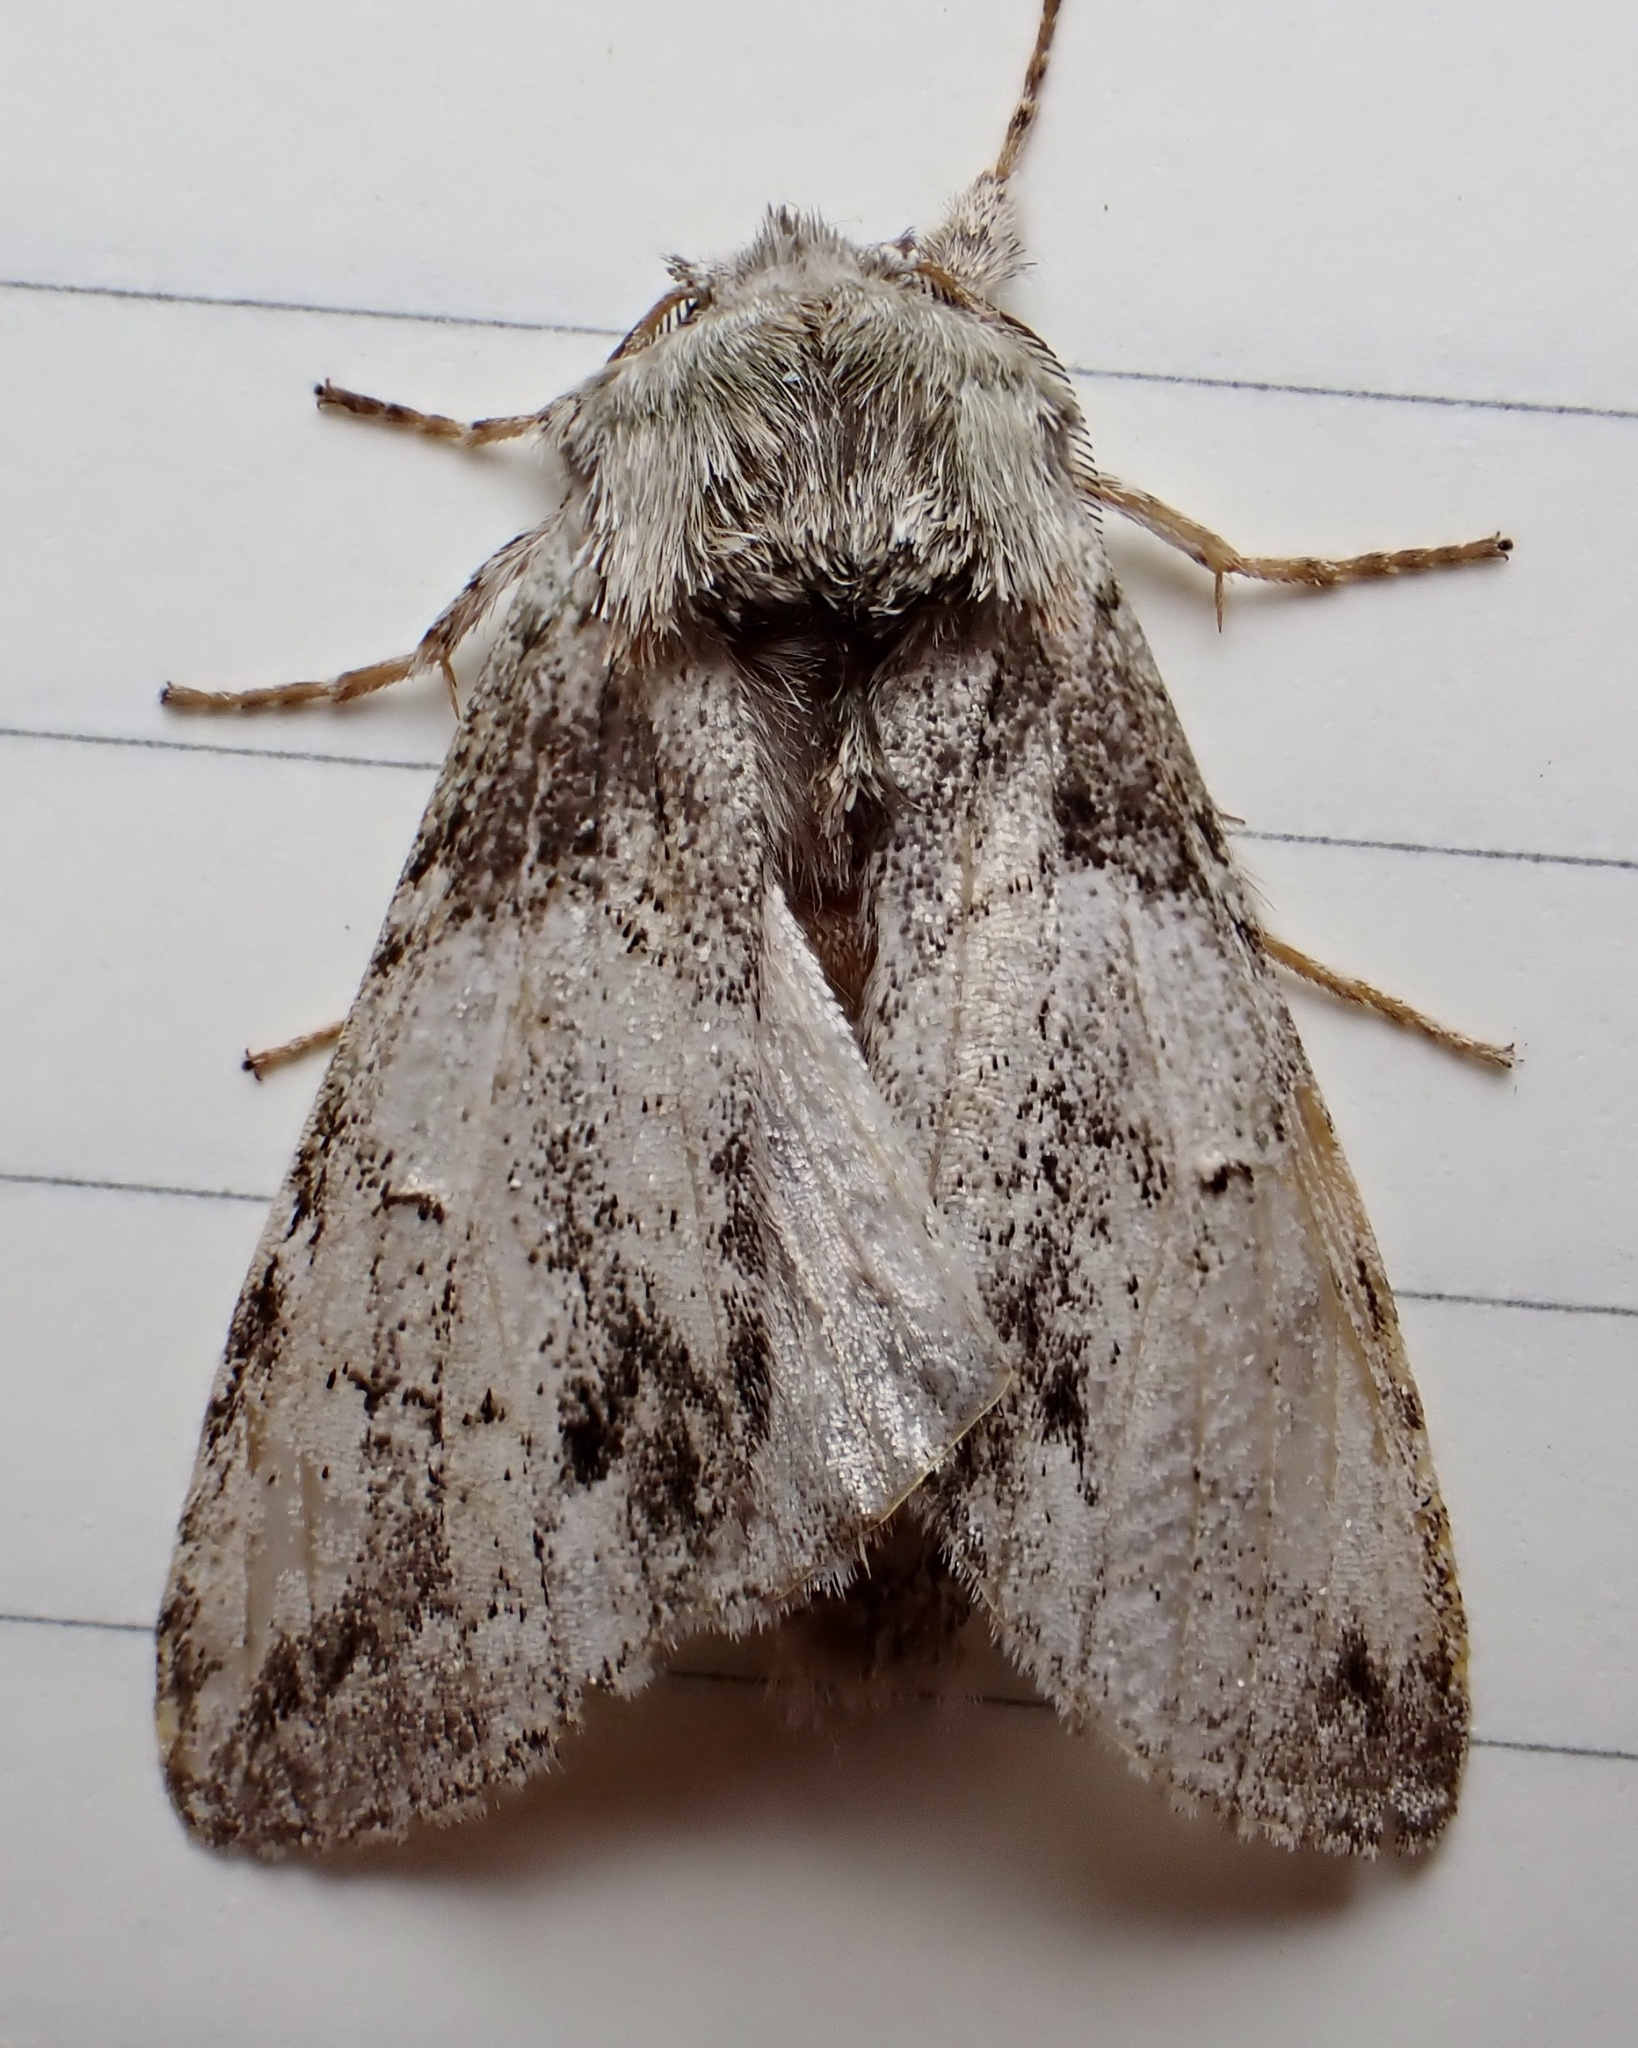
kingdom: Animalia
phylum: Arthropoda
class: Insecta
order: Lepidoptera
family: Notodontidae
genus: Macrurocampa
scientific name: Macrurocampa marthesia
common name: Mottled prominent
